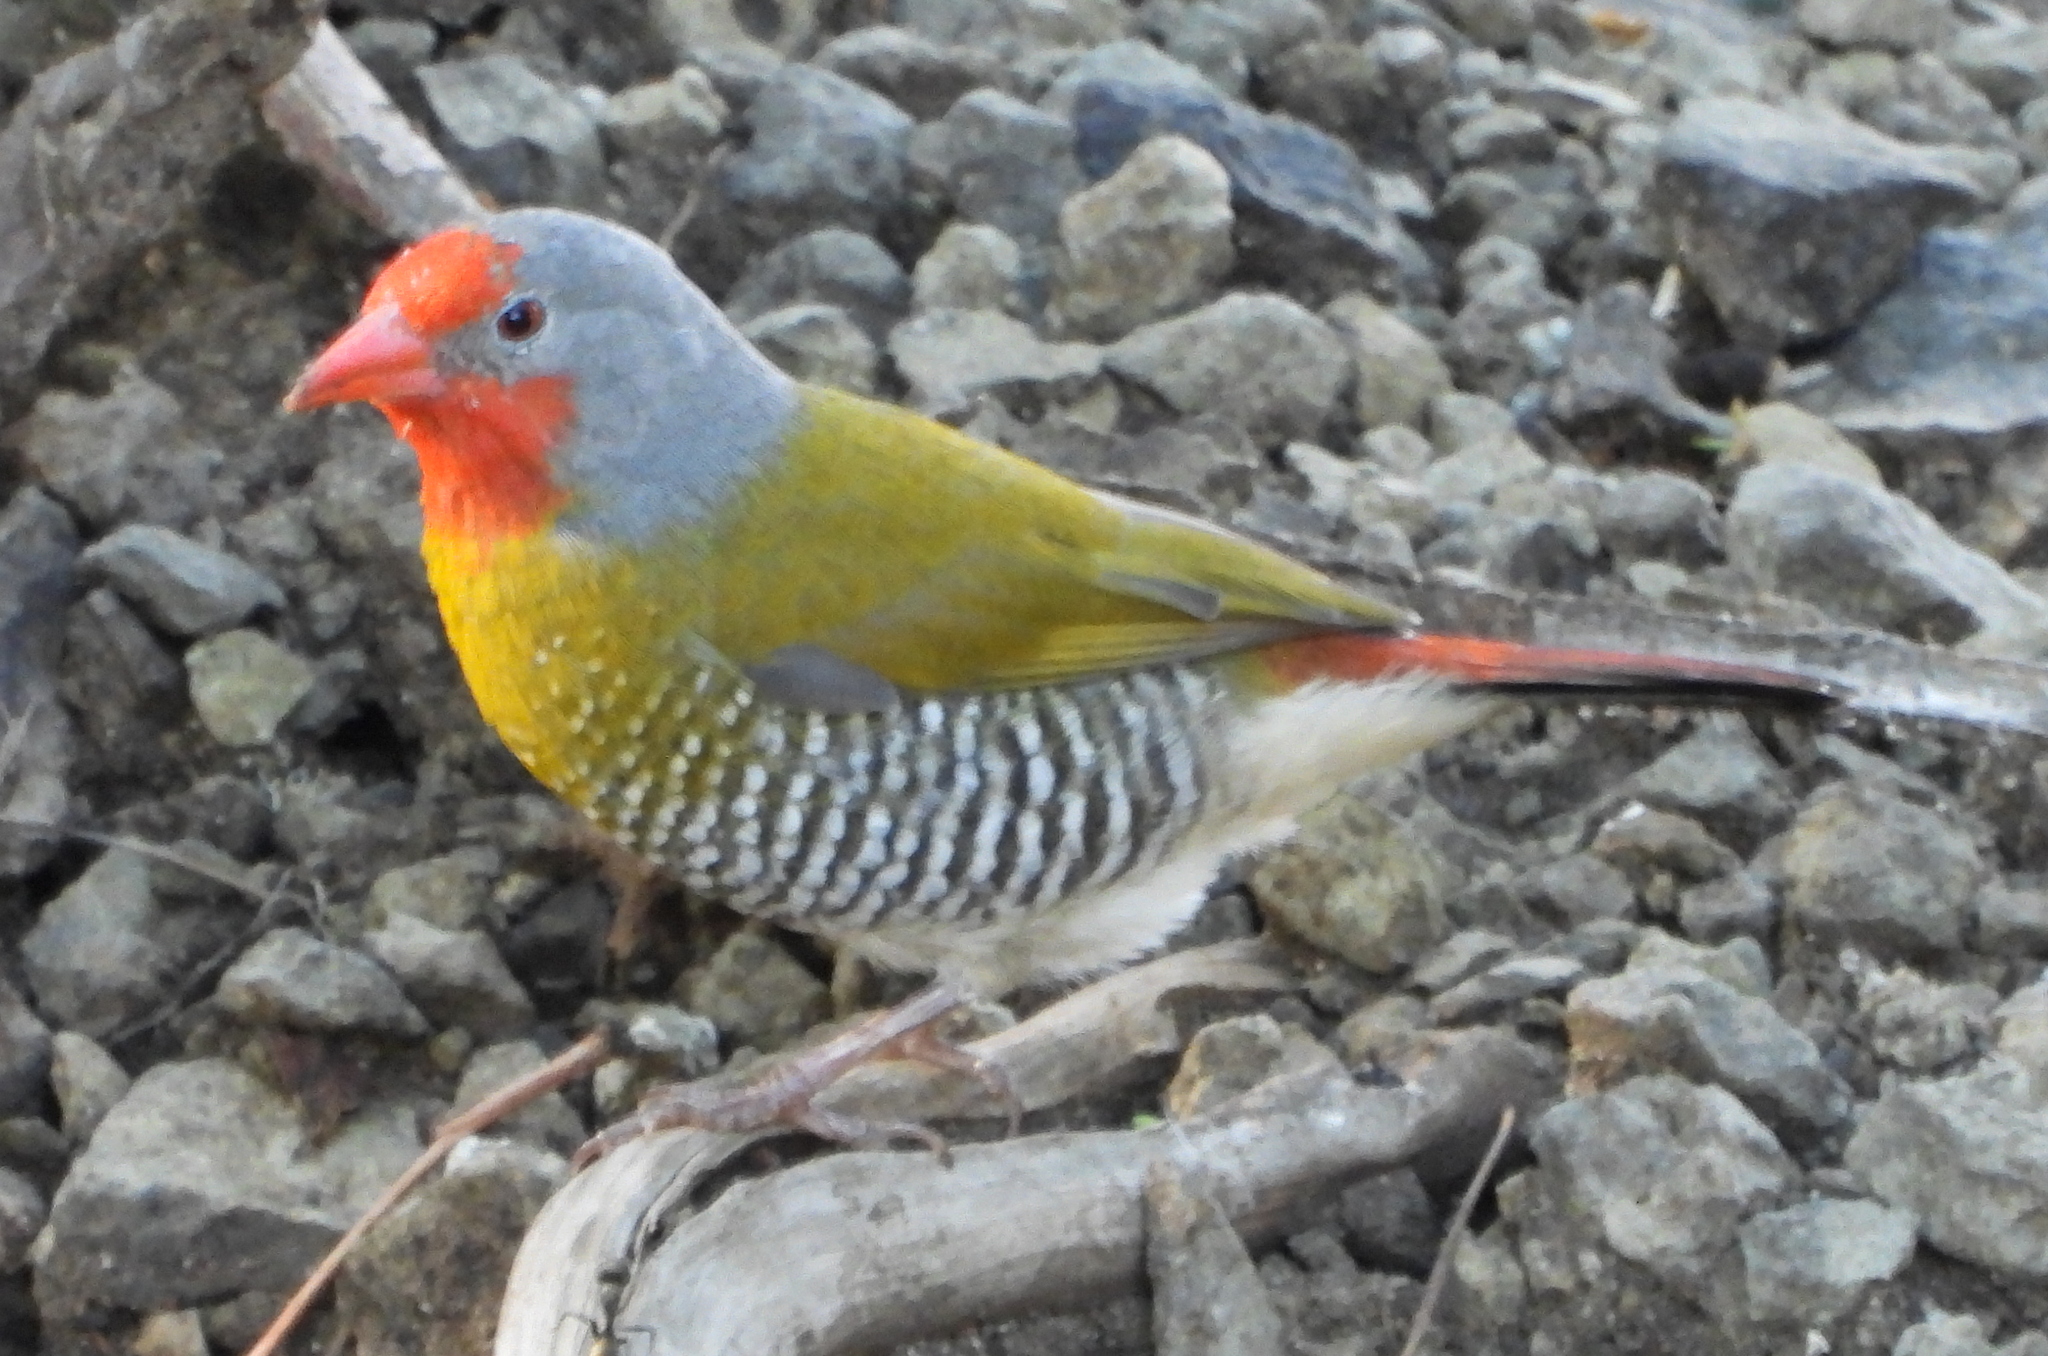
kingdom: Animalia
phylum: Chordata
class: Aves
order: Passeriformes
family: Estrildidae
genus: Pytilia
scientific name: Pytilia melba
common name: Green-winged pytilia
